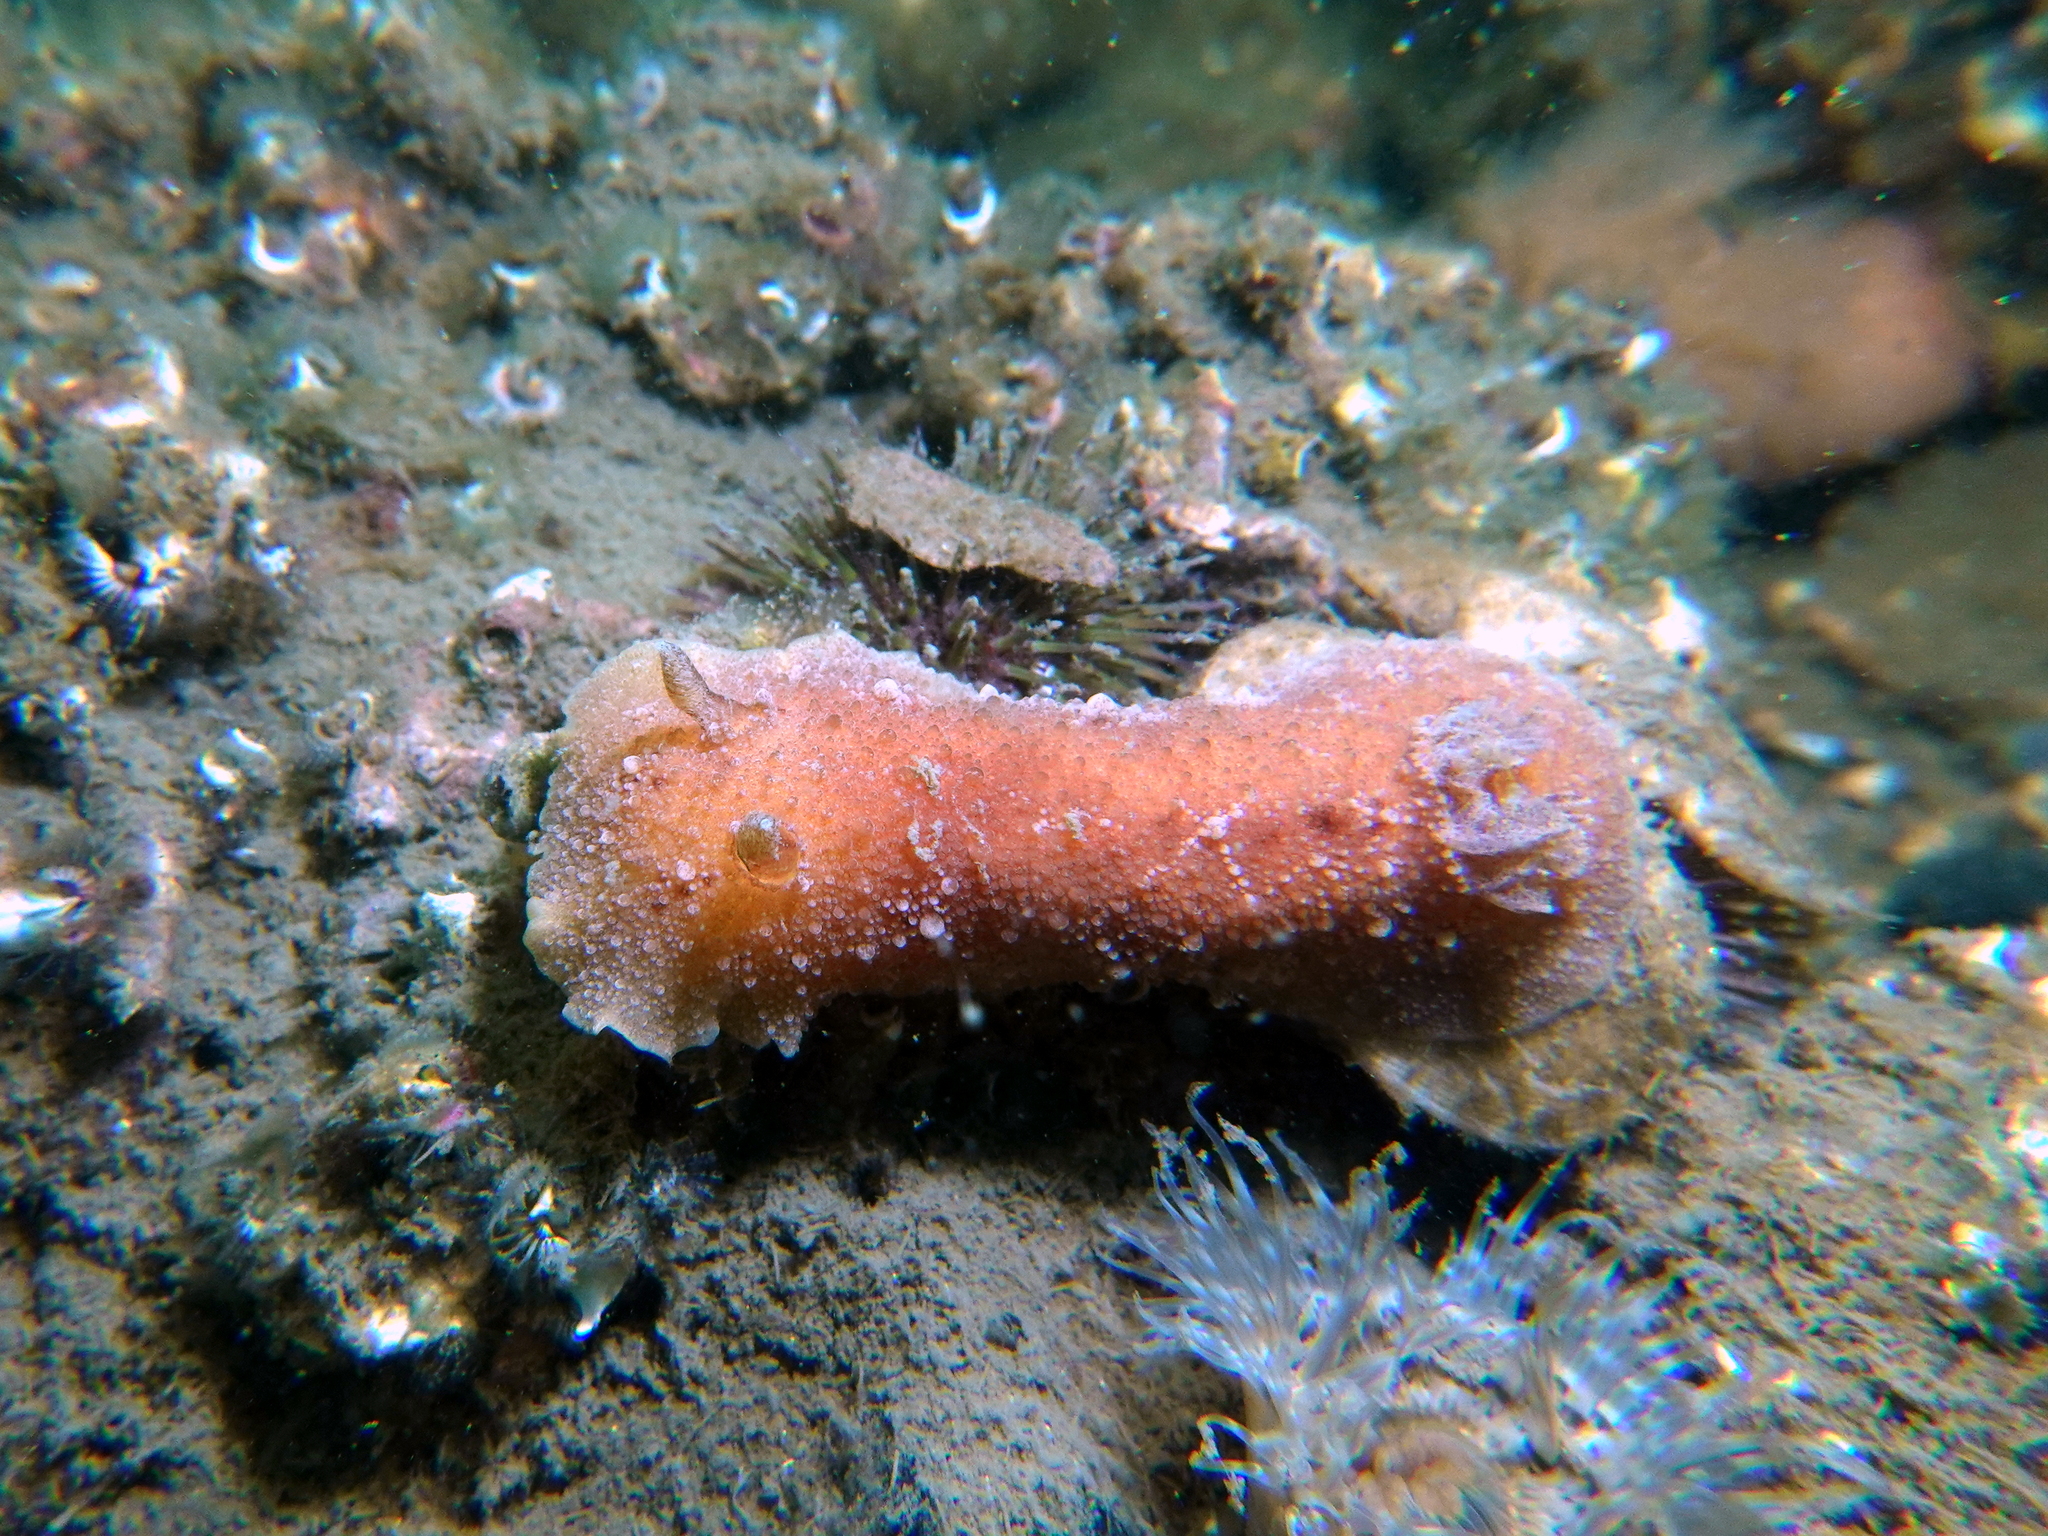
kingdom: Animalia
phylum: Mollusca
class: Gastropoda
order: Nudibranchia
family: Discodorididae
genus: Geitodoris
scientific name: Geitodoris planata
